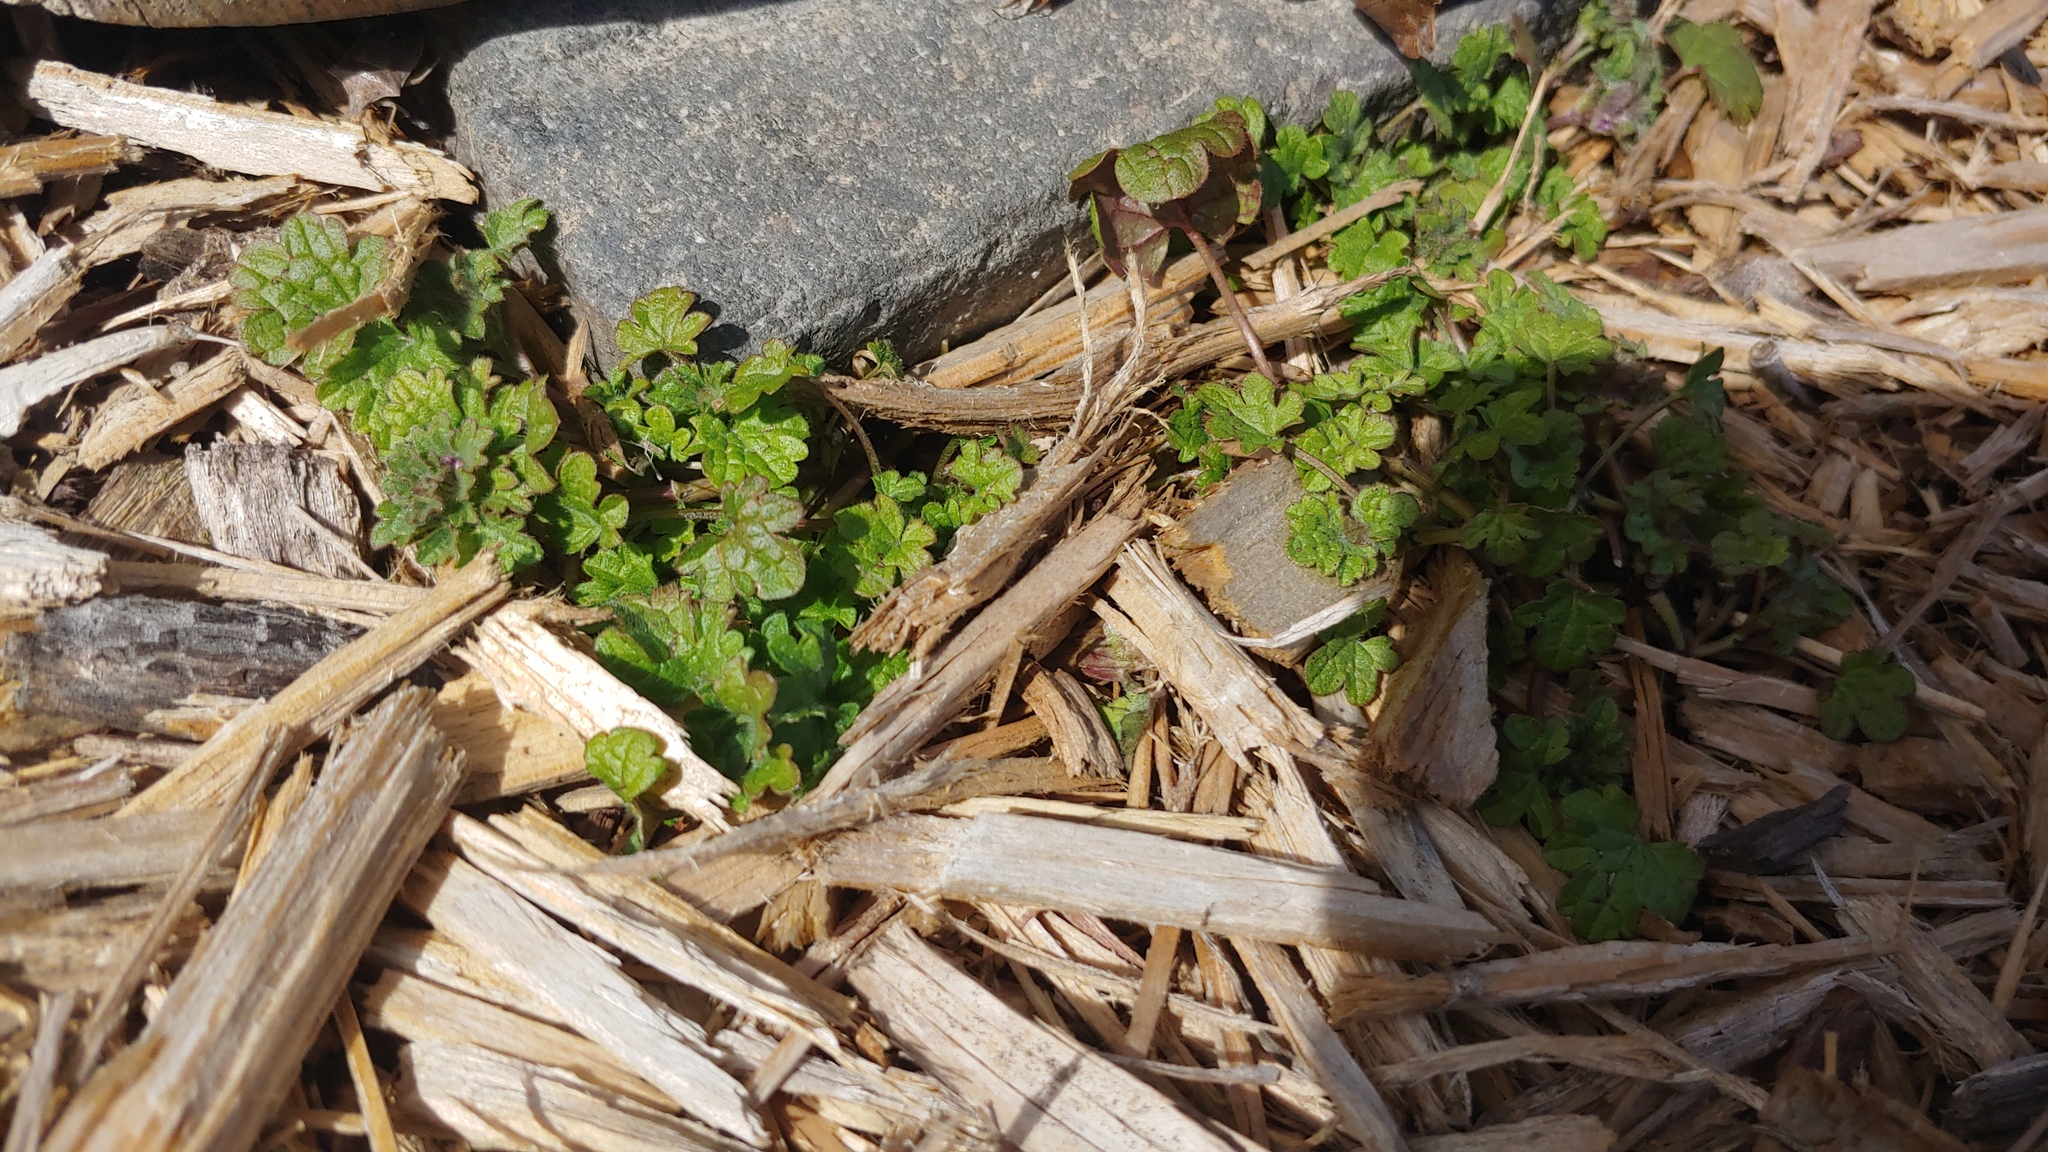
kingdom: Plantae
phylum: Tracheophyta
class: Magnoliopsida
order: Lamiales
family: Lamiaceae
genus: Lamium
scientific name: Lamium amplexicaule
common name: Henbit dead-nettle
